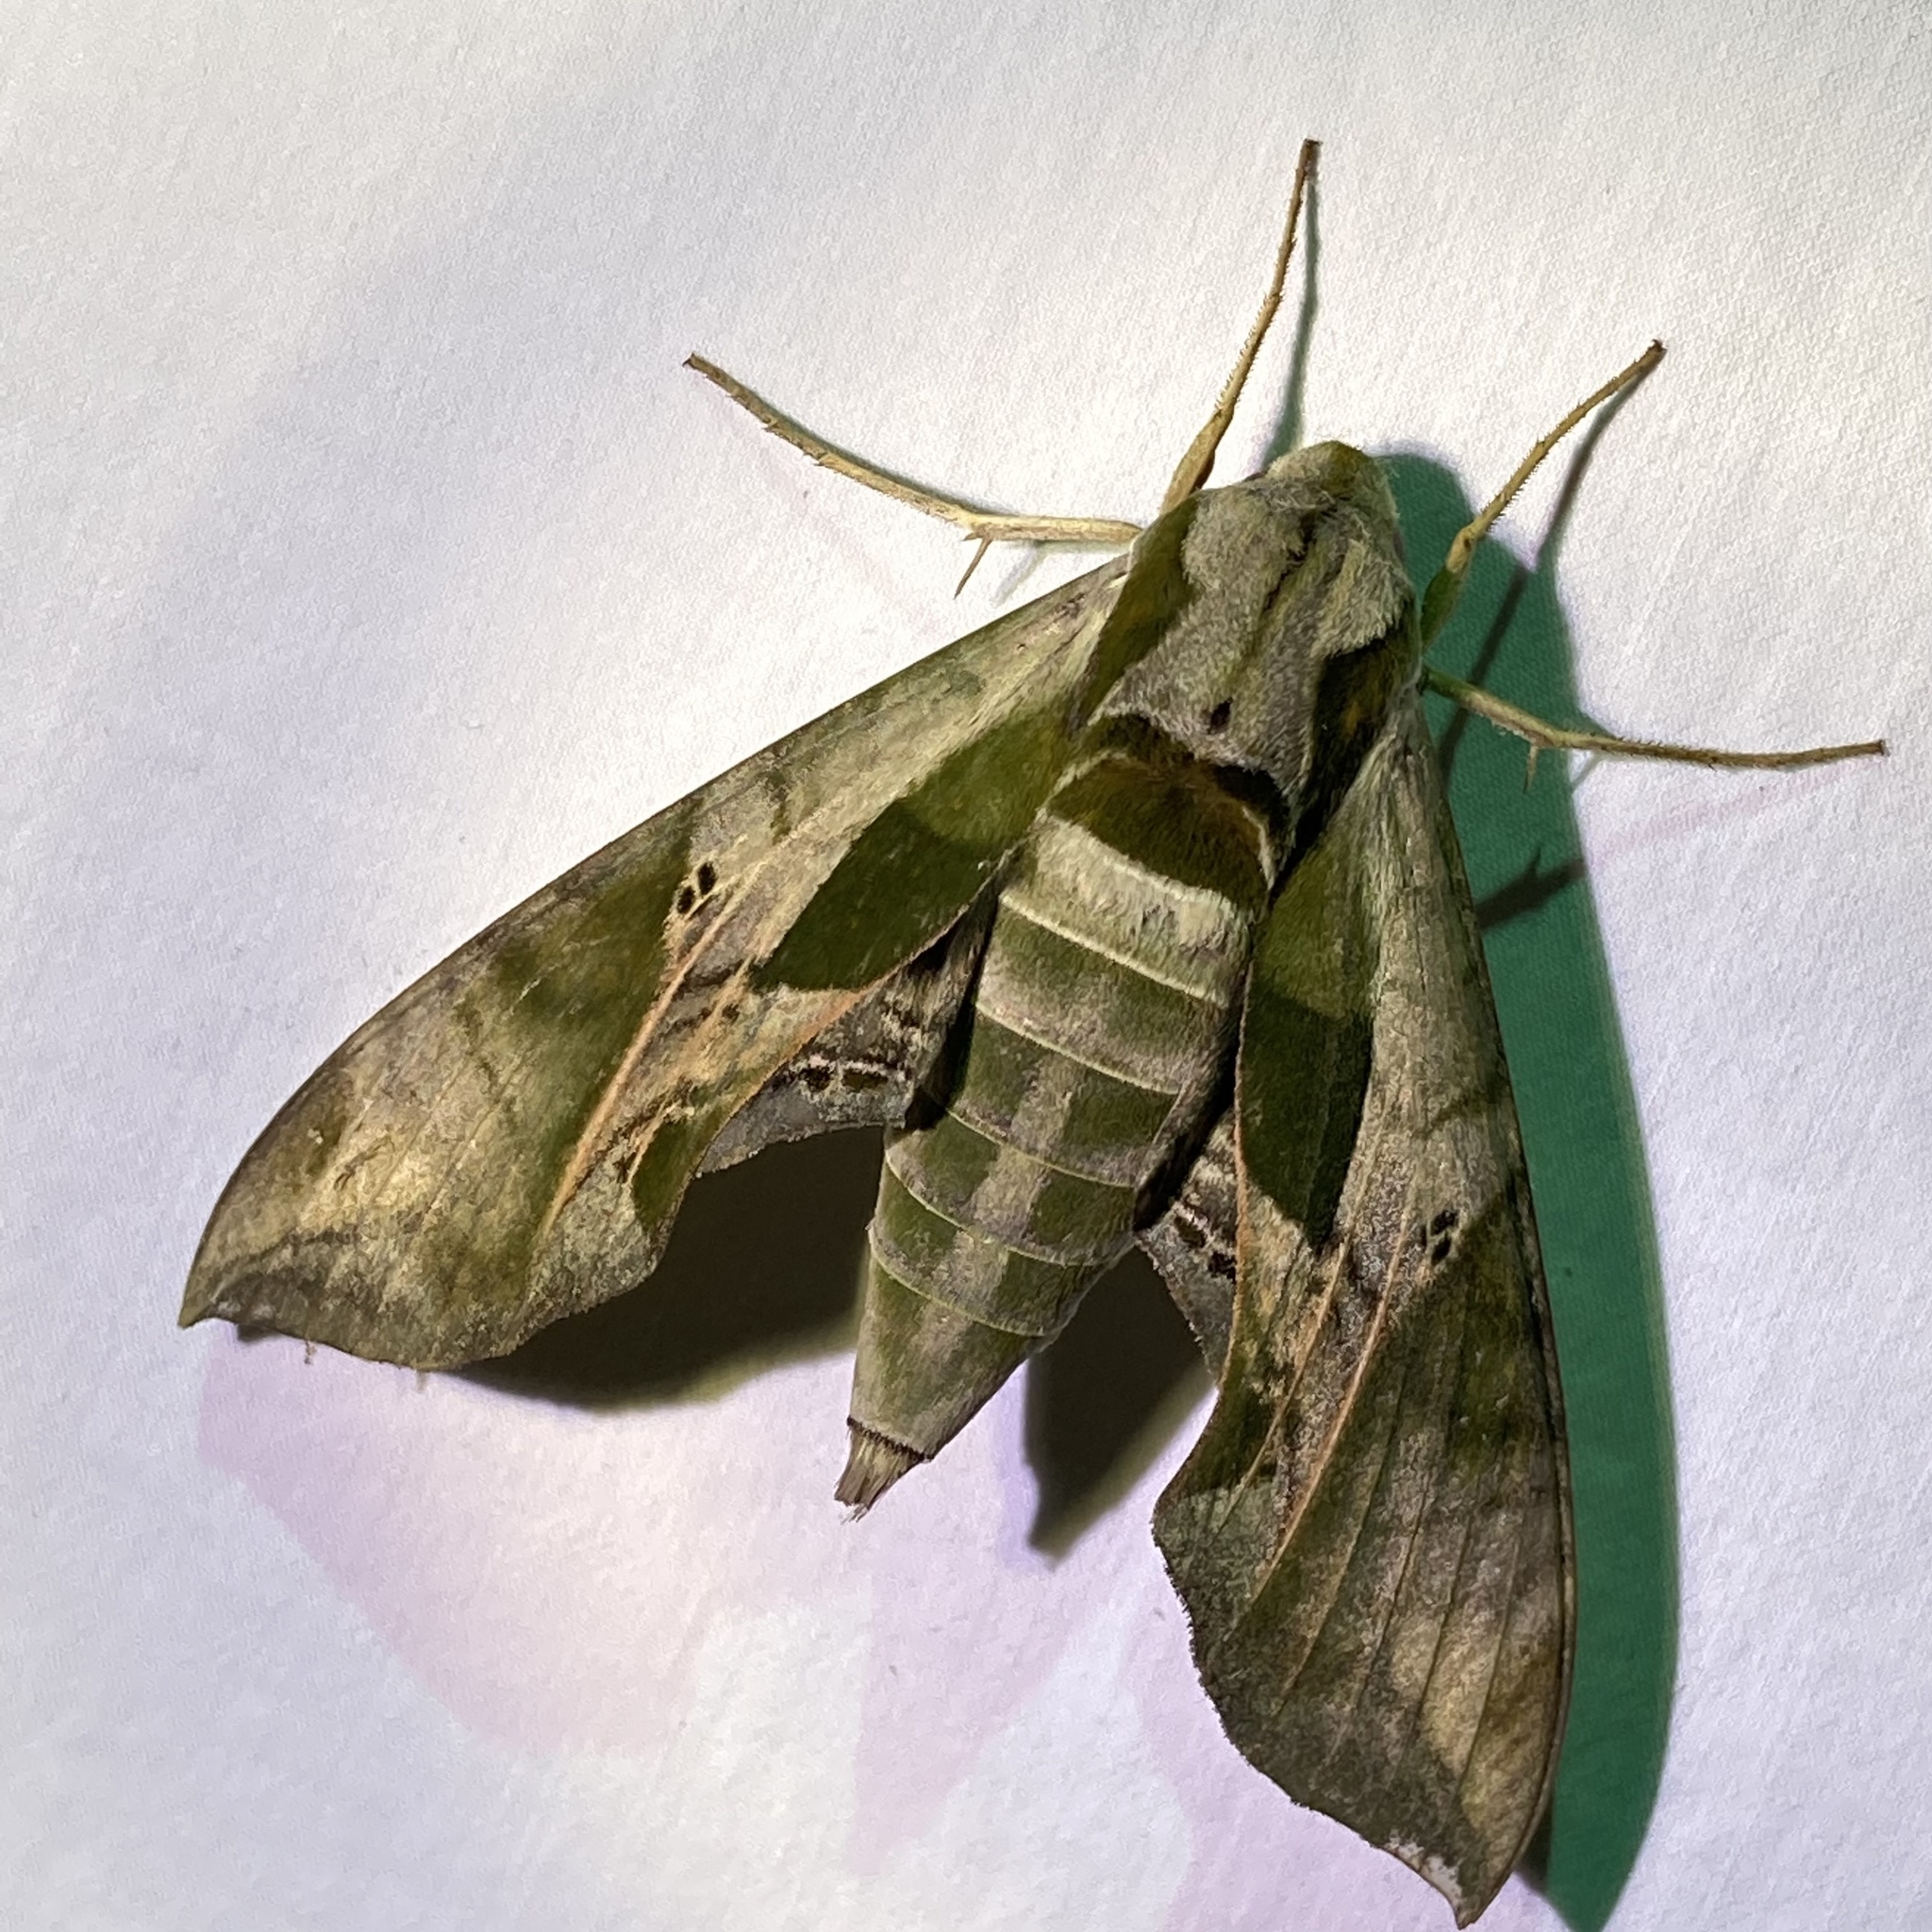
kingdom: Animalia
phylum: Arthropoda
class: Insecta
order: Lepidoptera
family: Sphingidae
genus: Eumorpha
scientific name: Eumorpha pandorus
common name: Pandora sphinx
